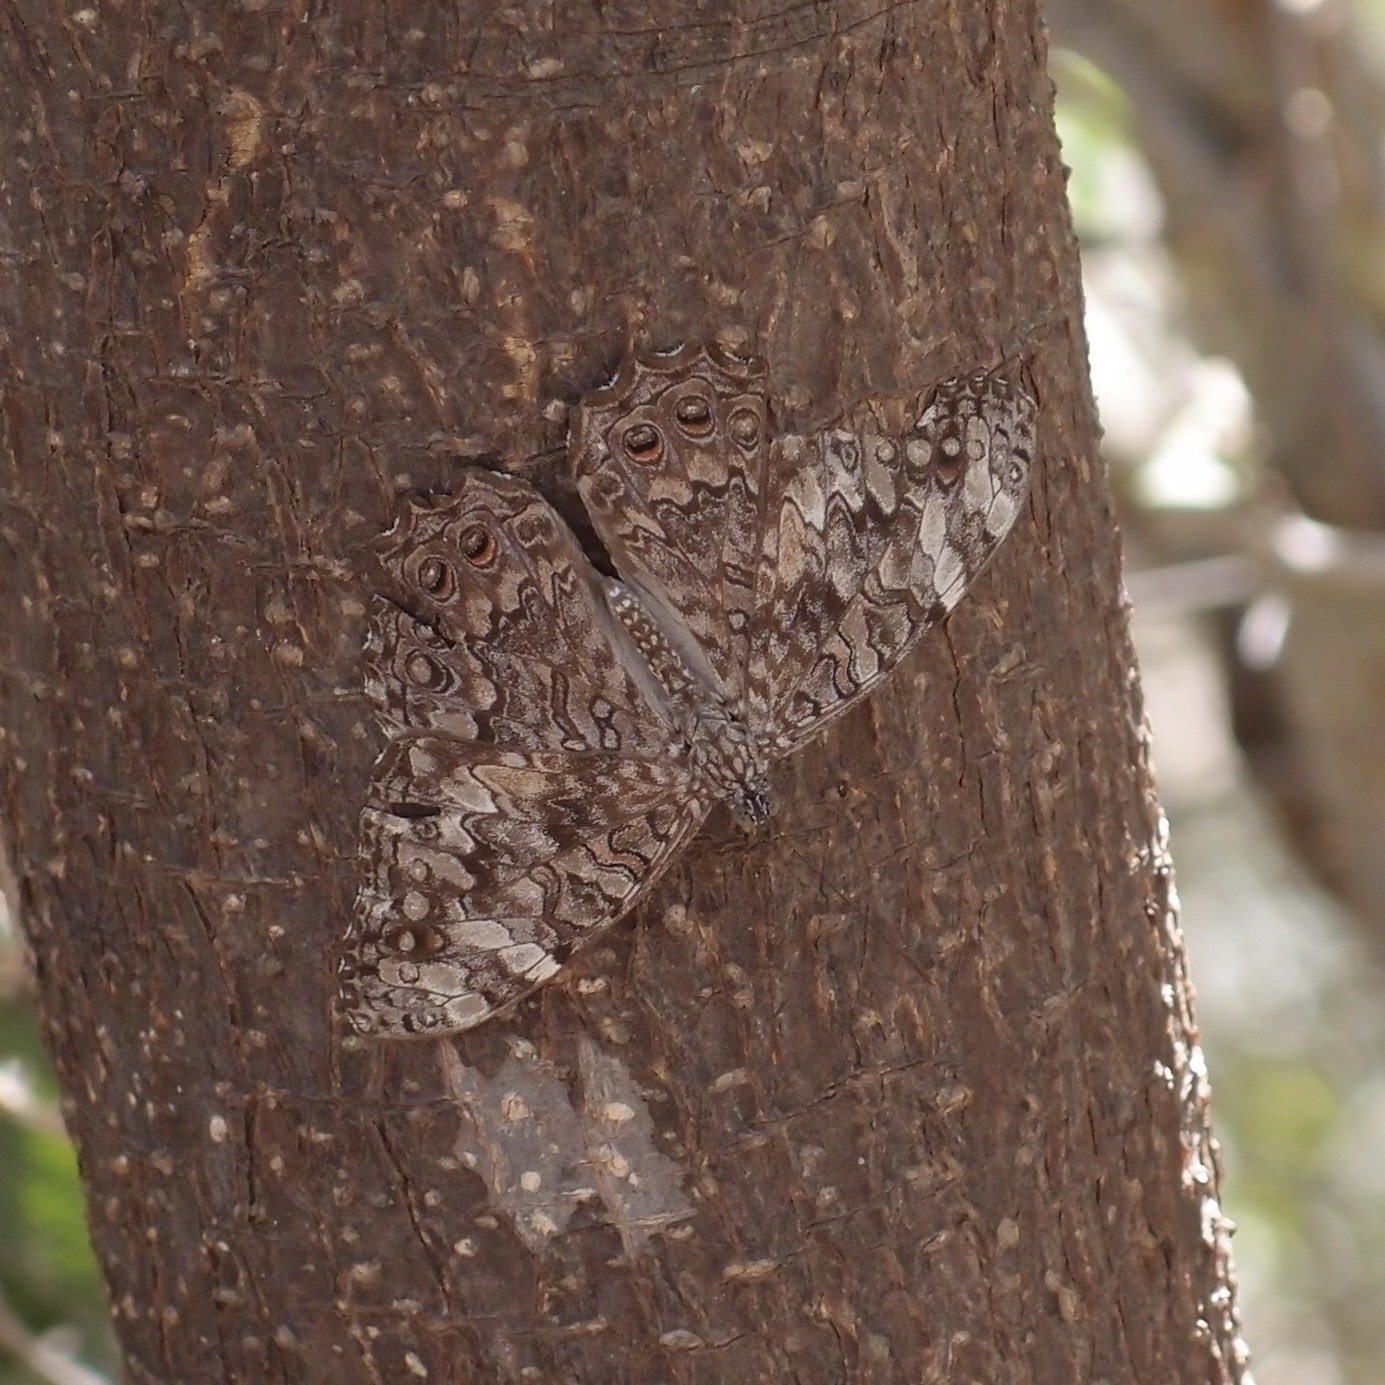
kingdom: Animalia
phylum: Arthropoda
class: Insecta
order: Lepidoptera
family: Nymphalidae
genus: Hamadryas
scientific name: Hamadryas februa
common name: Gray cracker
